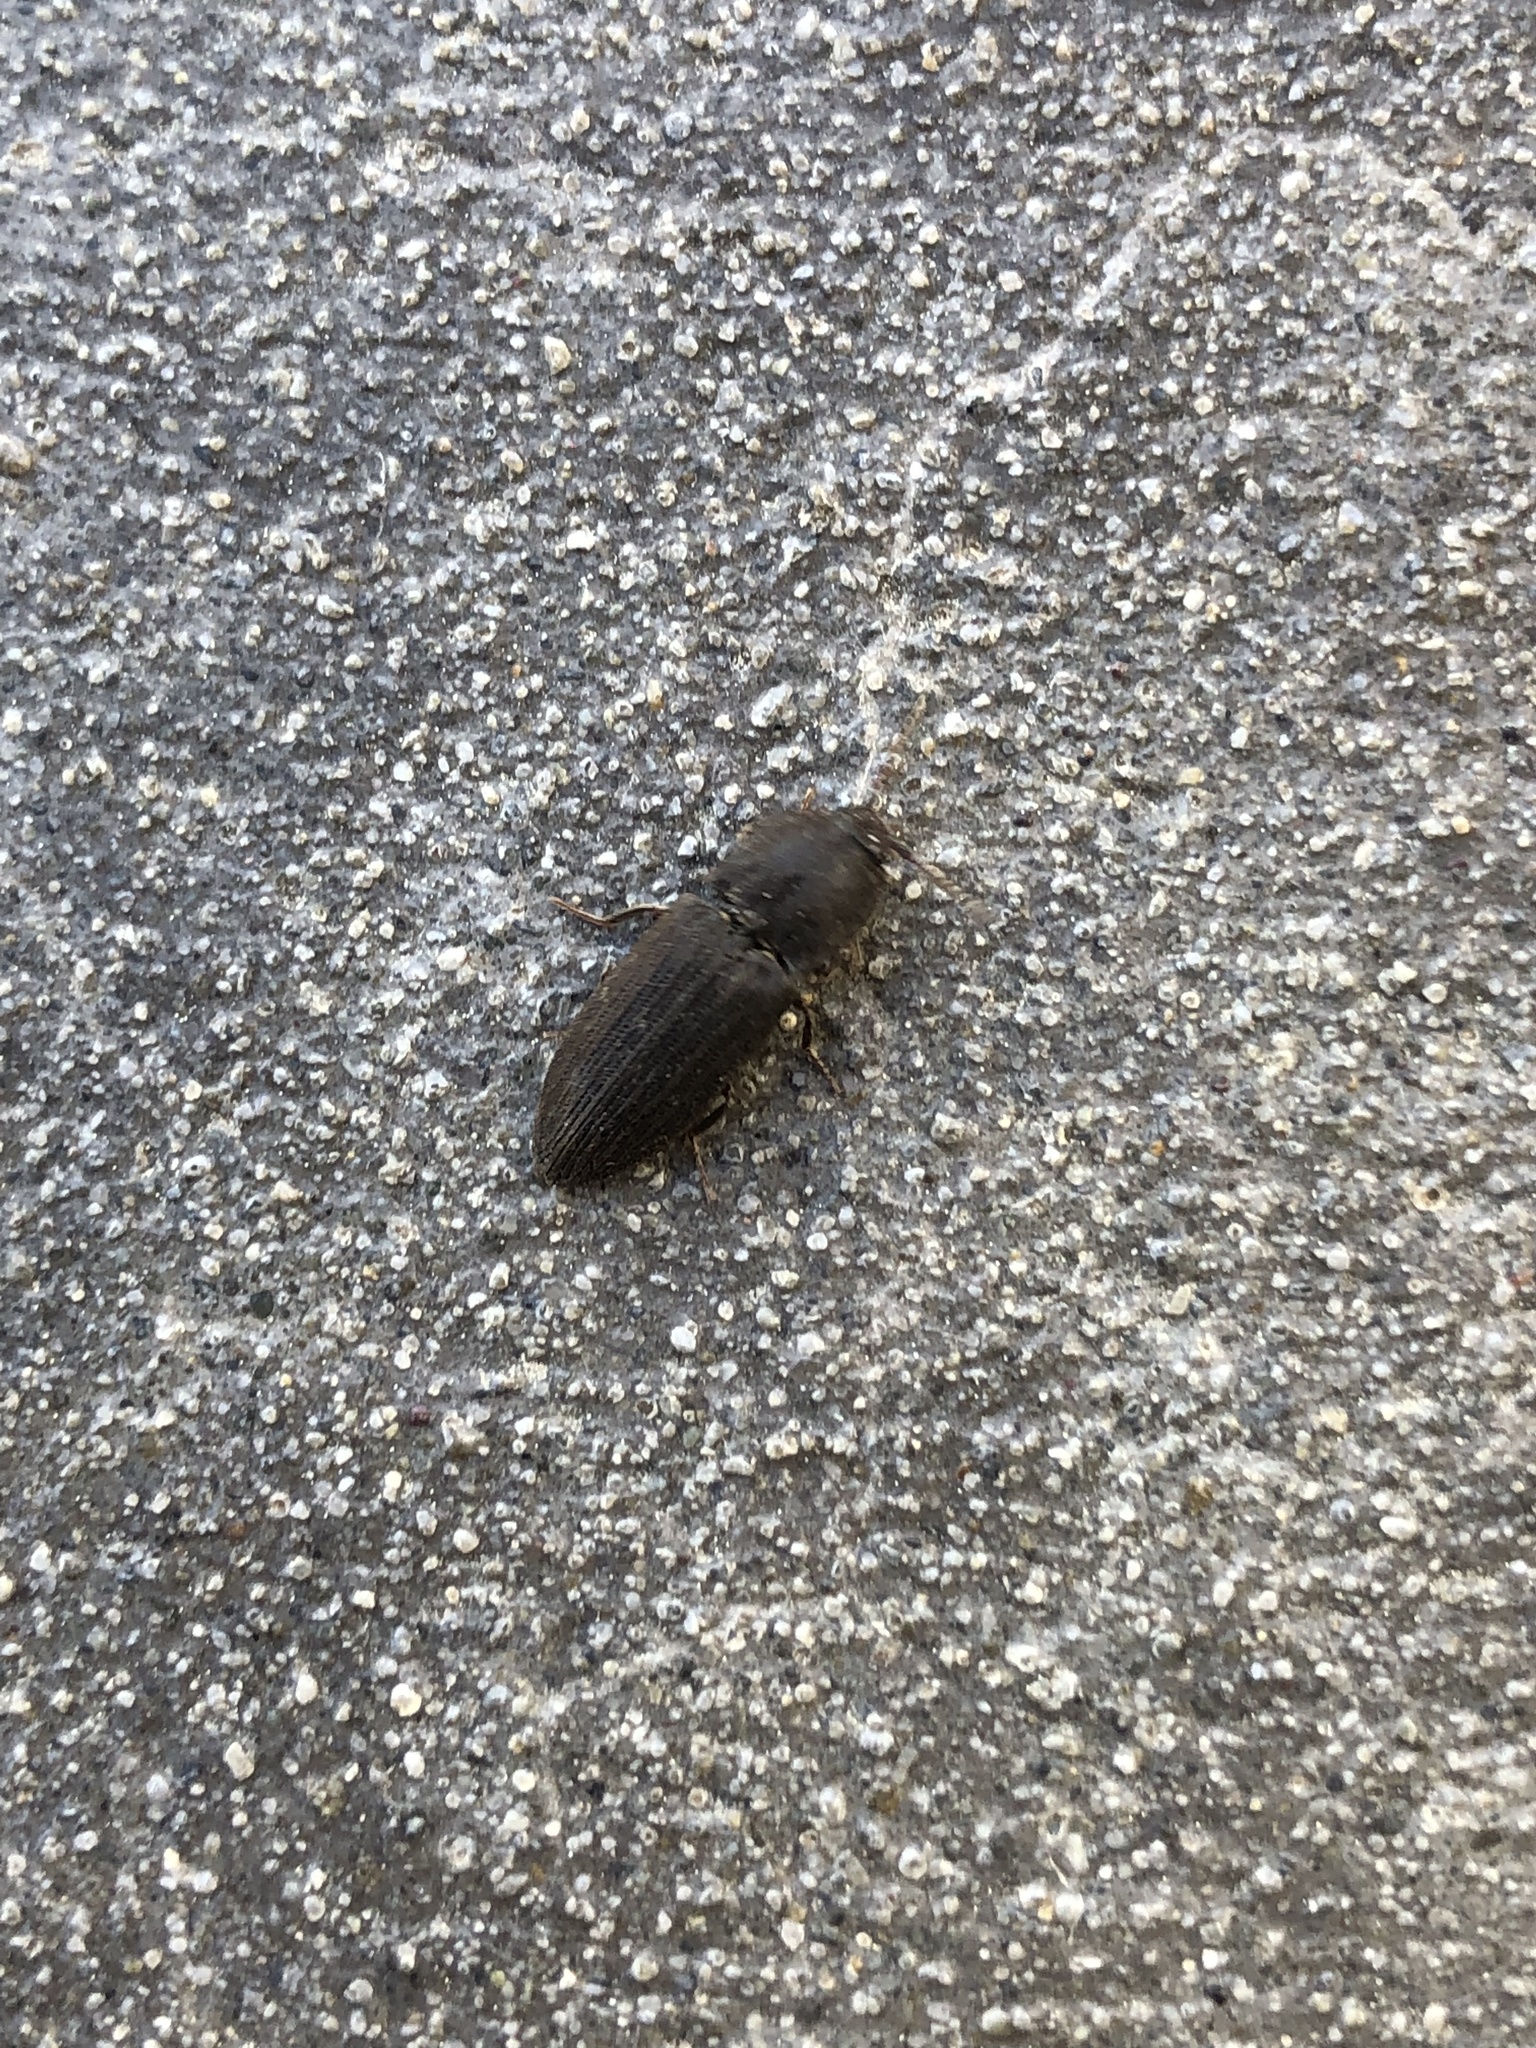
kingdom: Animalia
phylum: Arthropoda
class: Insecta
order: Coleoptera
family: Elateridae
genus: Agrypnus
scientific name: Agrypnus
